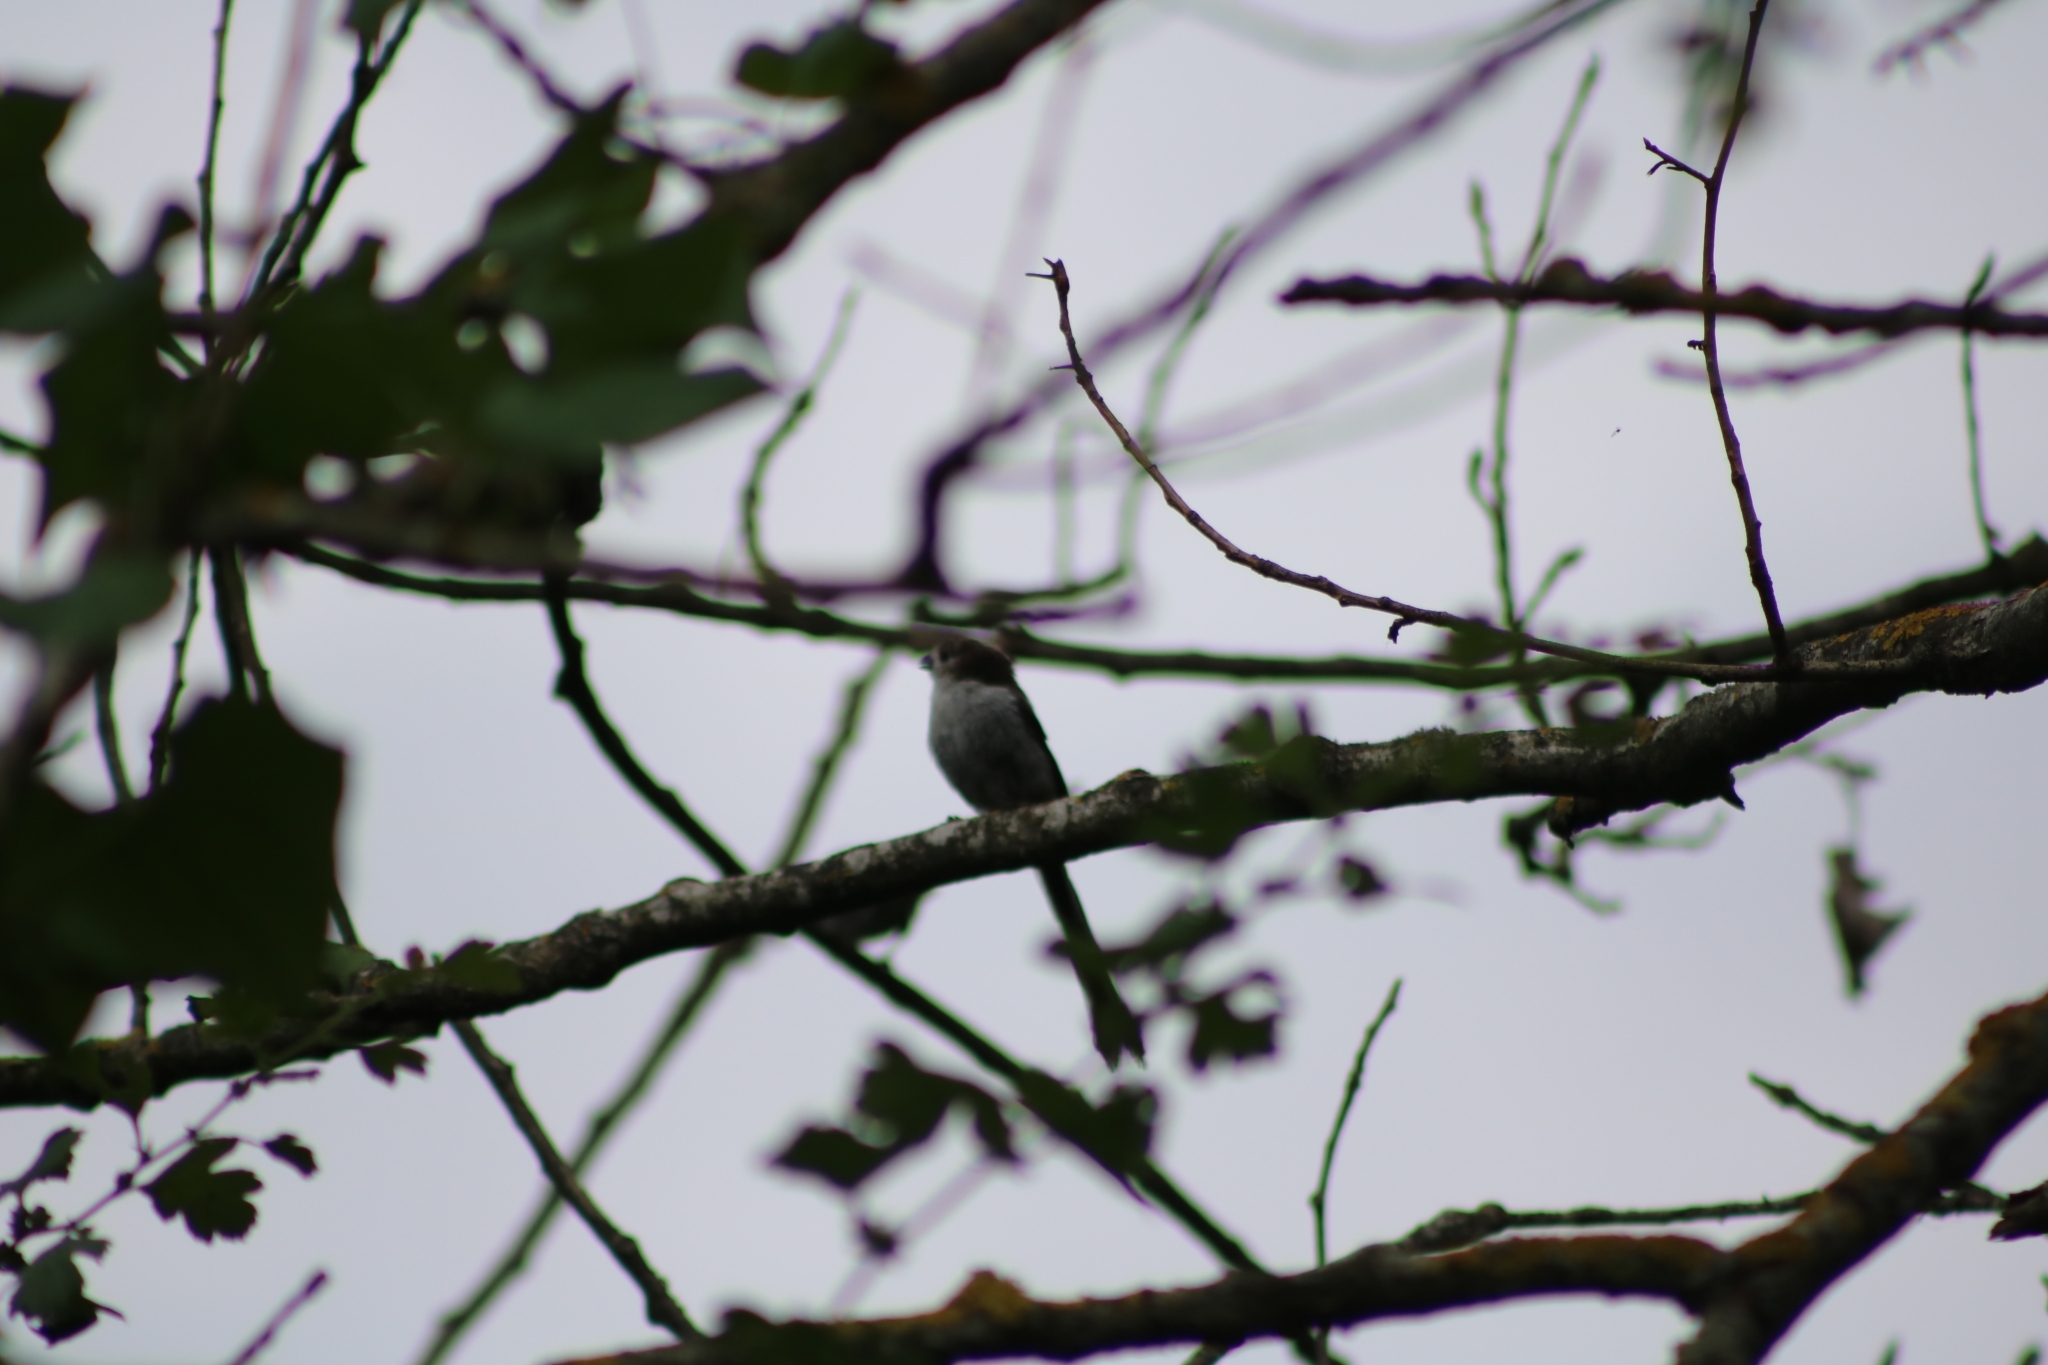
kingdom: Animalia
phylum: Chordata
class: Aves
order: Passeriformes
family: Aegithalidae
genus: Aegithalos
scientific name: Aegithalos caudatus
